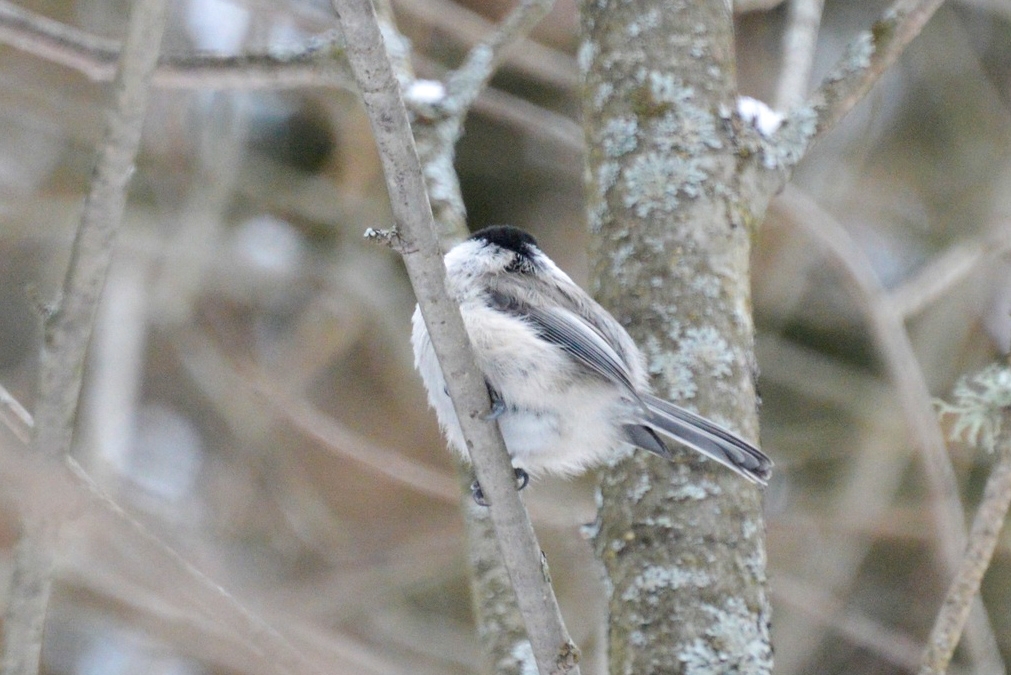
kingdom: Animalia
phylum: Chordata
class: Aves
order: Passeriformes
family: Paridae
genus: Poecile
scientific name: Poecile montanus
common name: Willow tit
